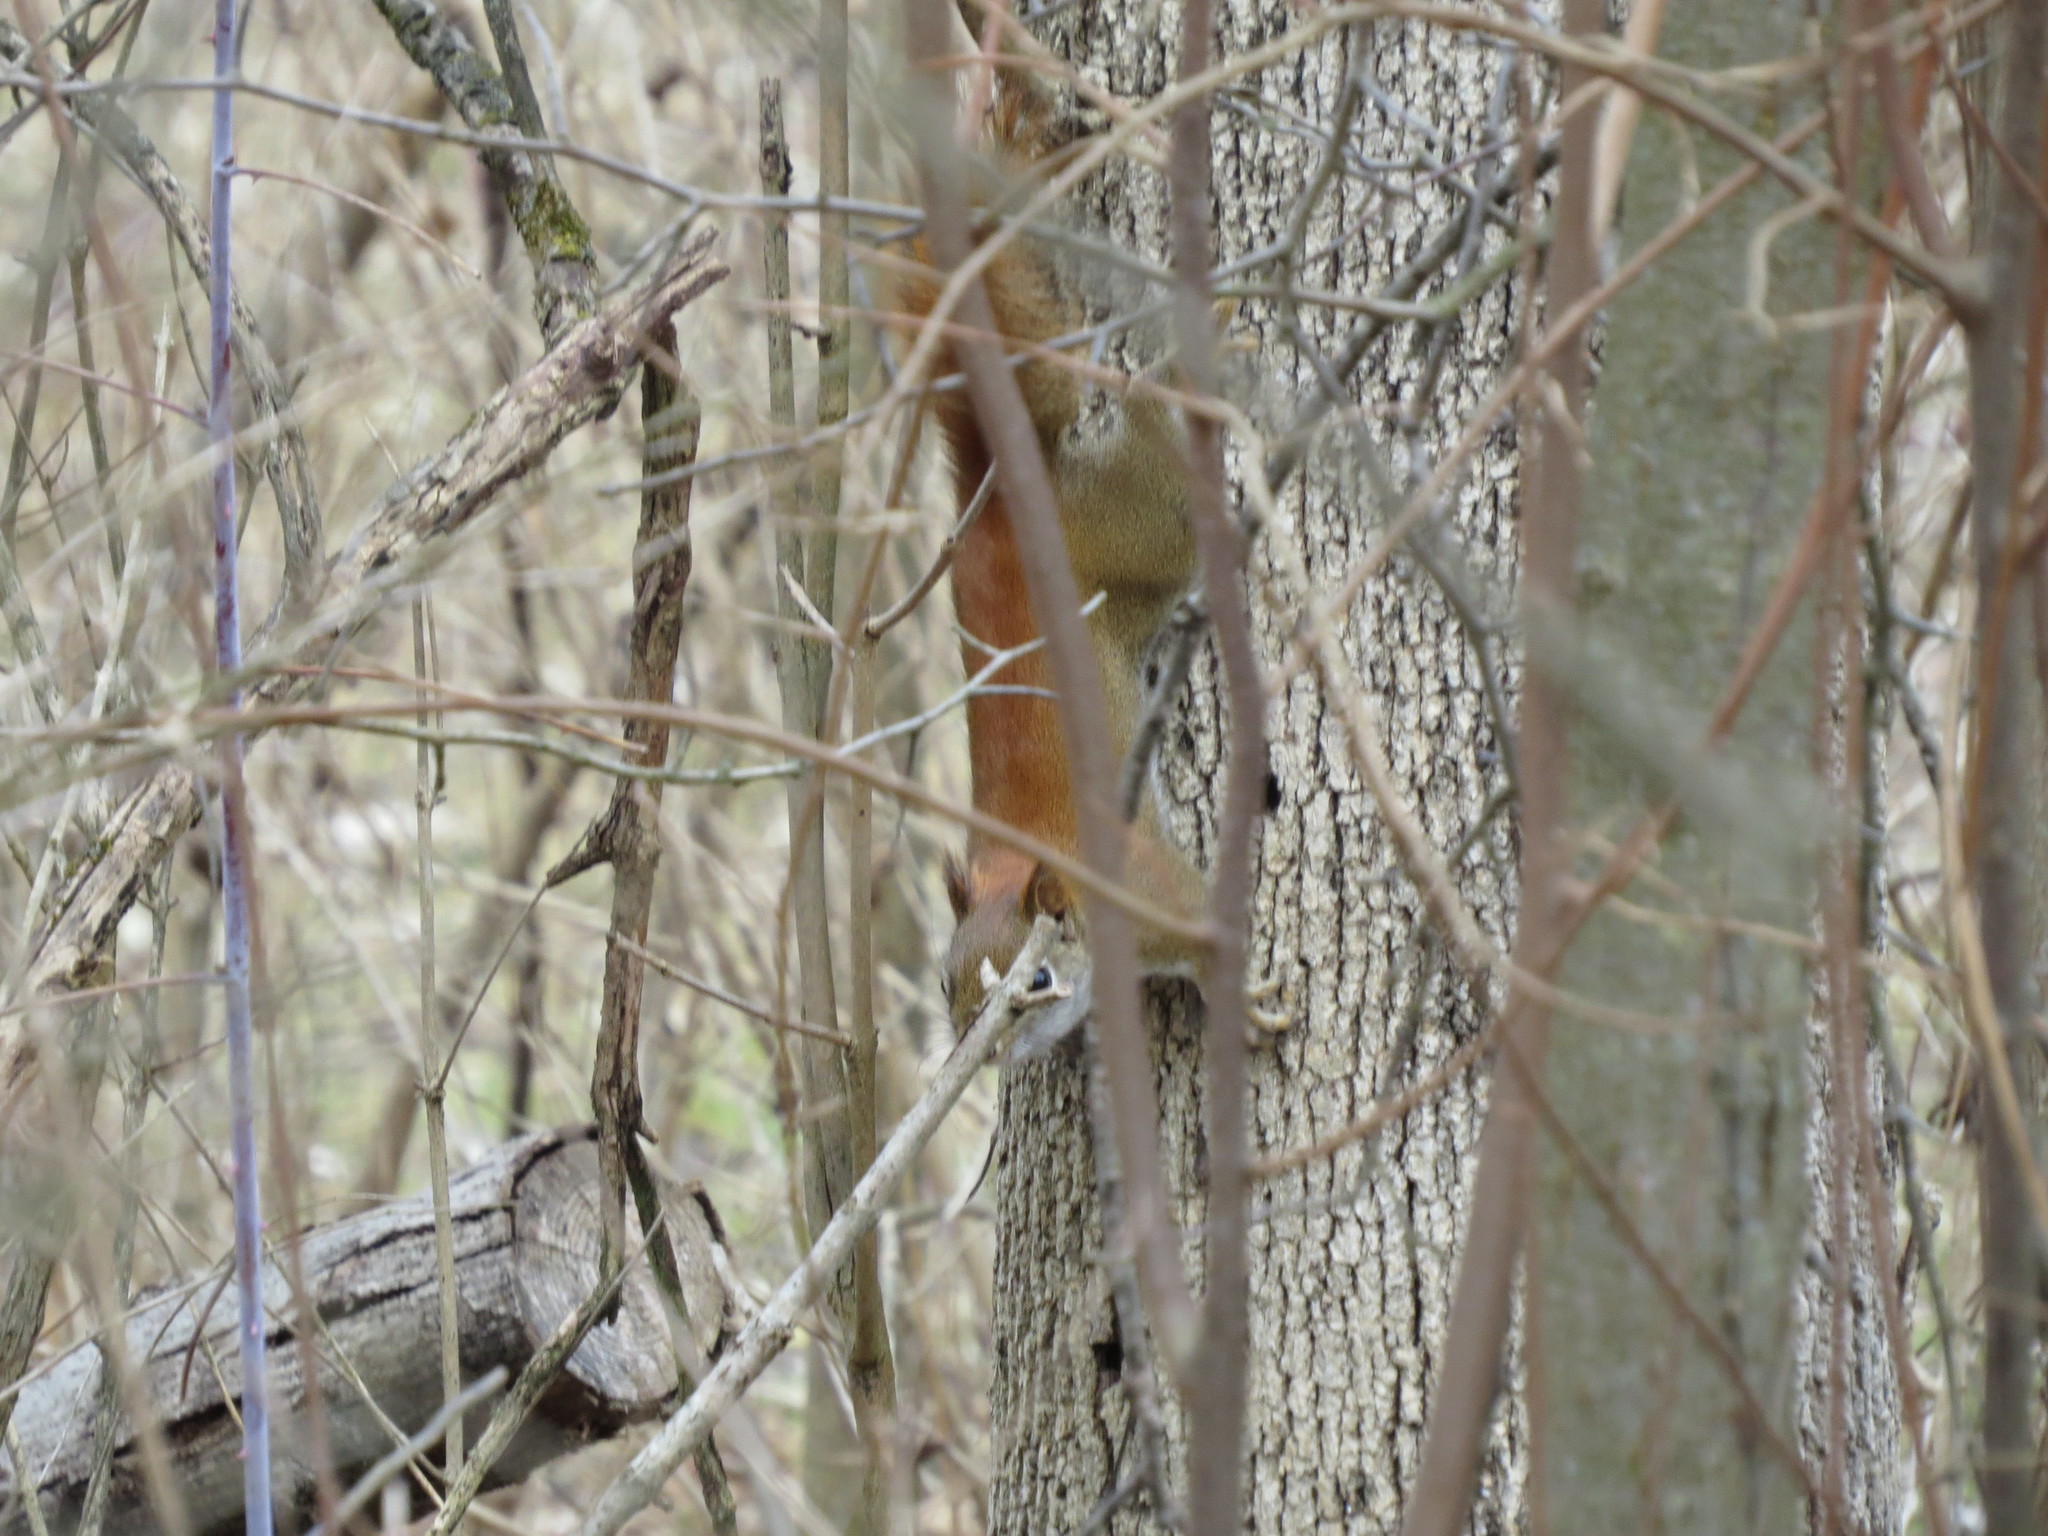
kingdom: Animalia
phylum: Chordata
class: Mammalia
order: Rodentia
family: Sciuridae
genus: Tamiasciurus
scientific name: Tamiasciurus hudsonicus
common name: Red squirrel
